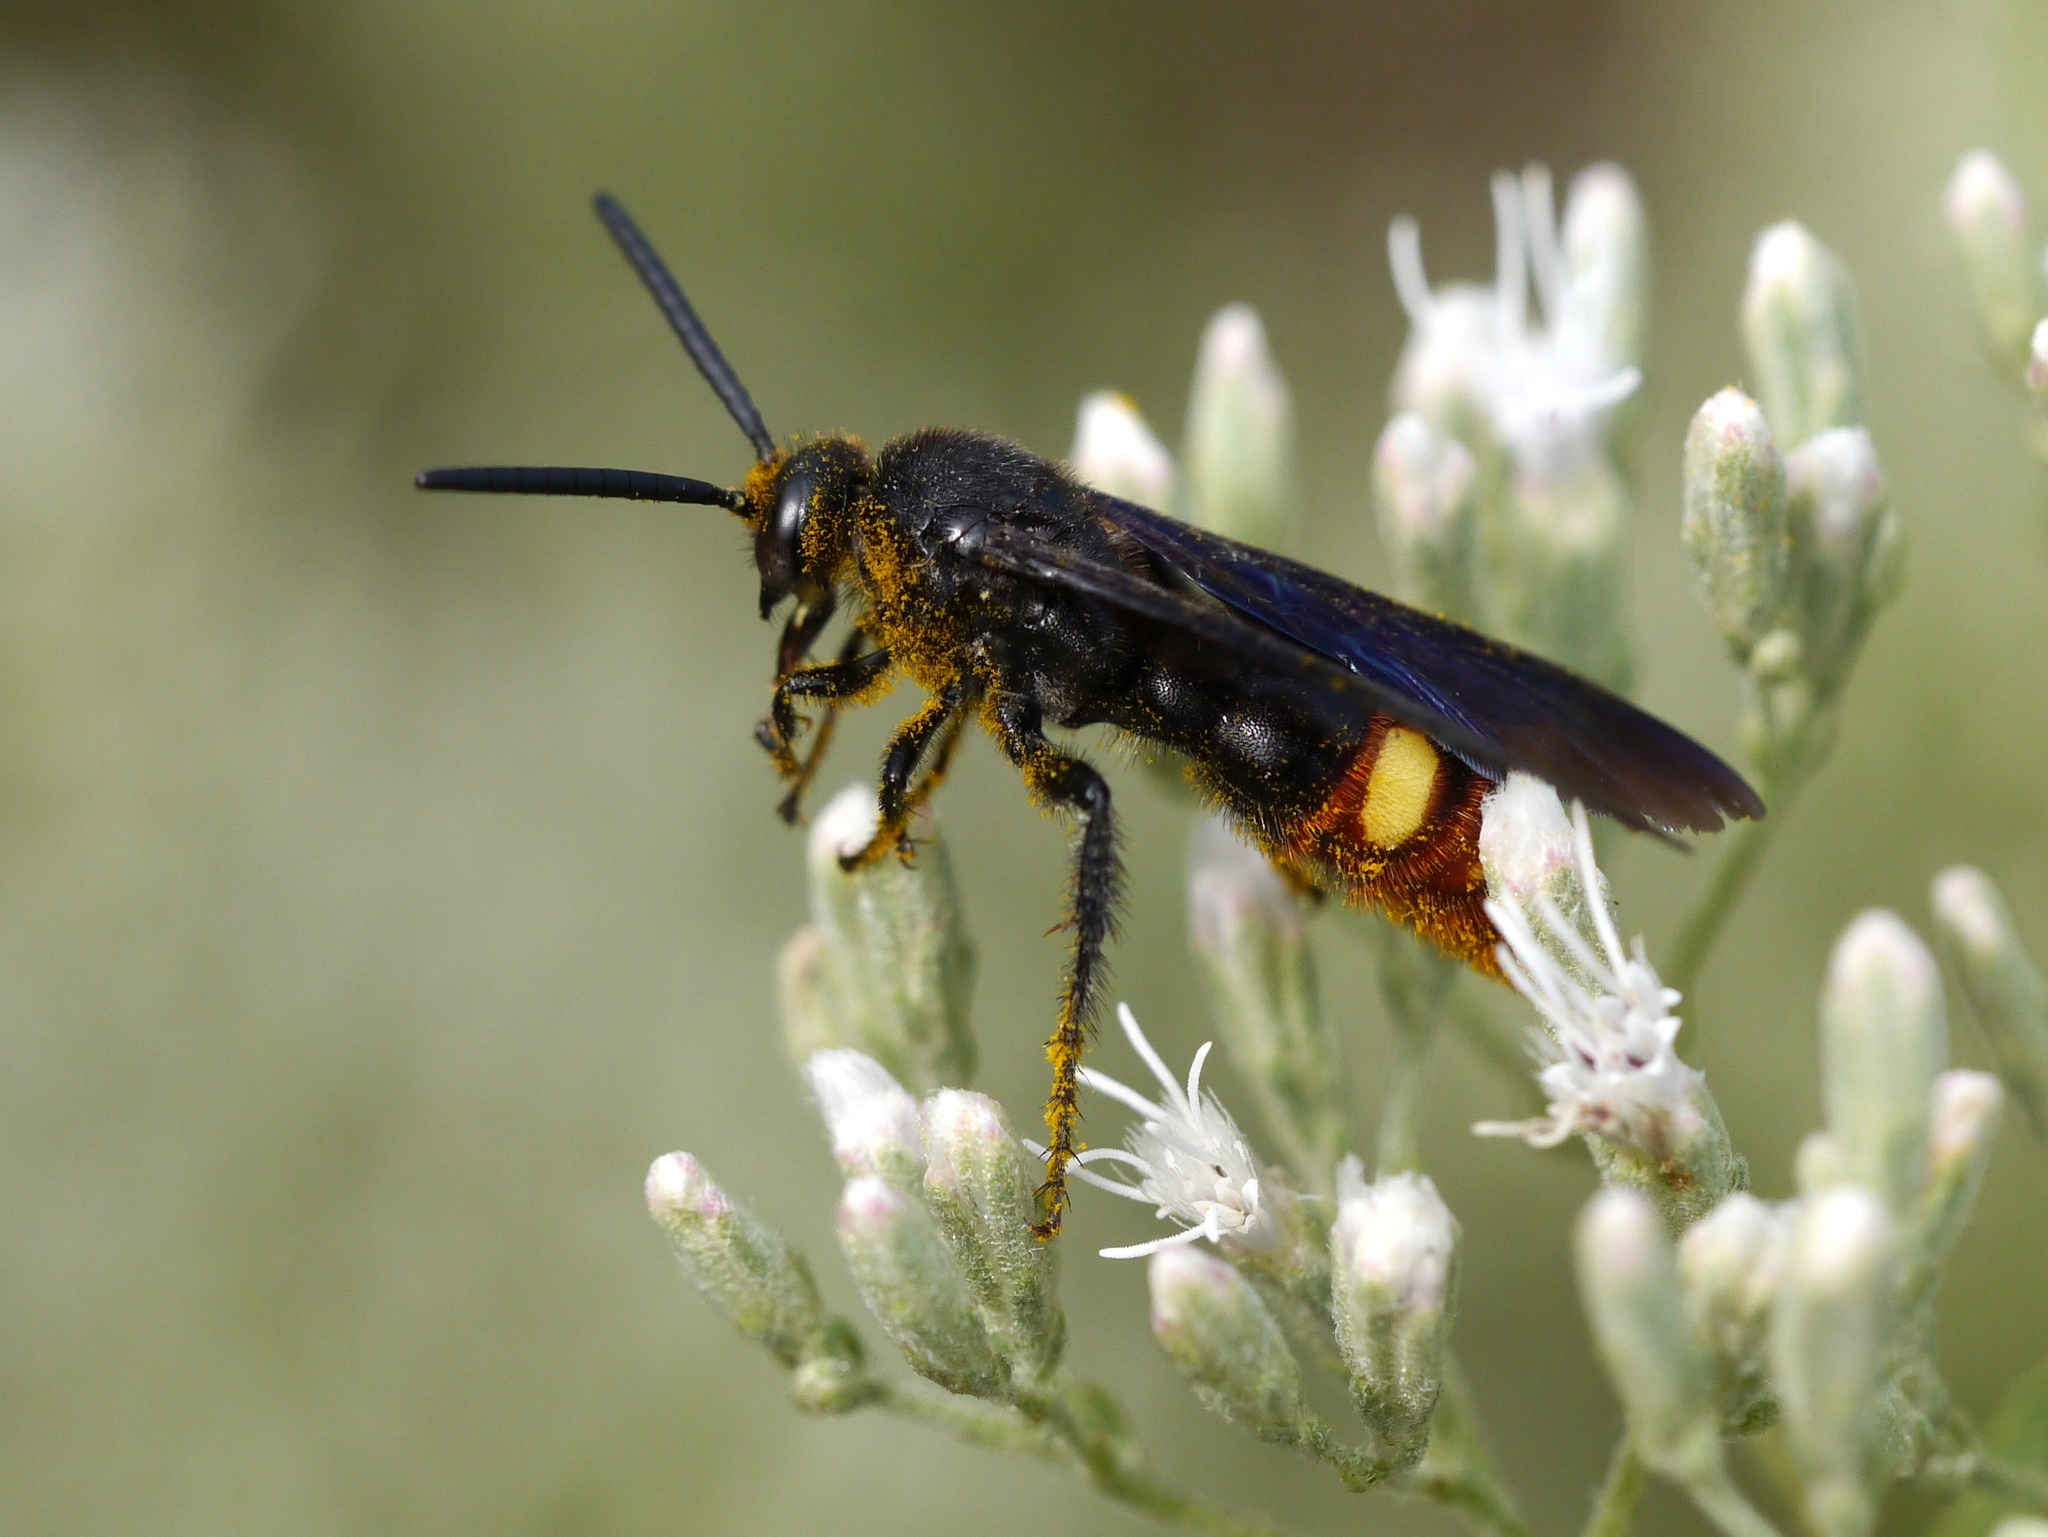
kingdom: Animalia
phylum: Arthropoda
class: Insecta
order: Hymenoptera
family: Scoliidae
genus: Scolia
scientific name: Scolia dubia
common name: Blue-winged scoliid wasp
